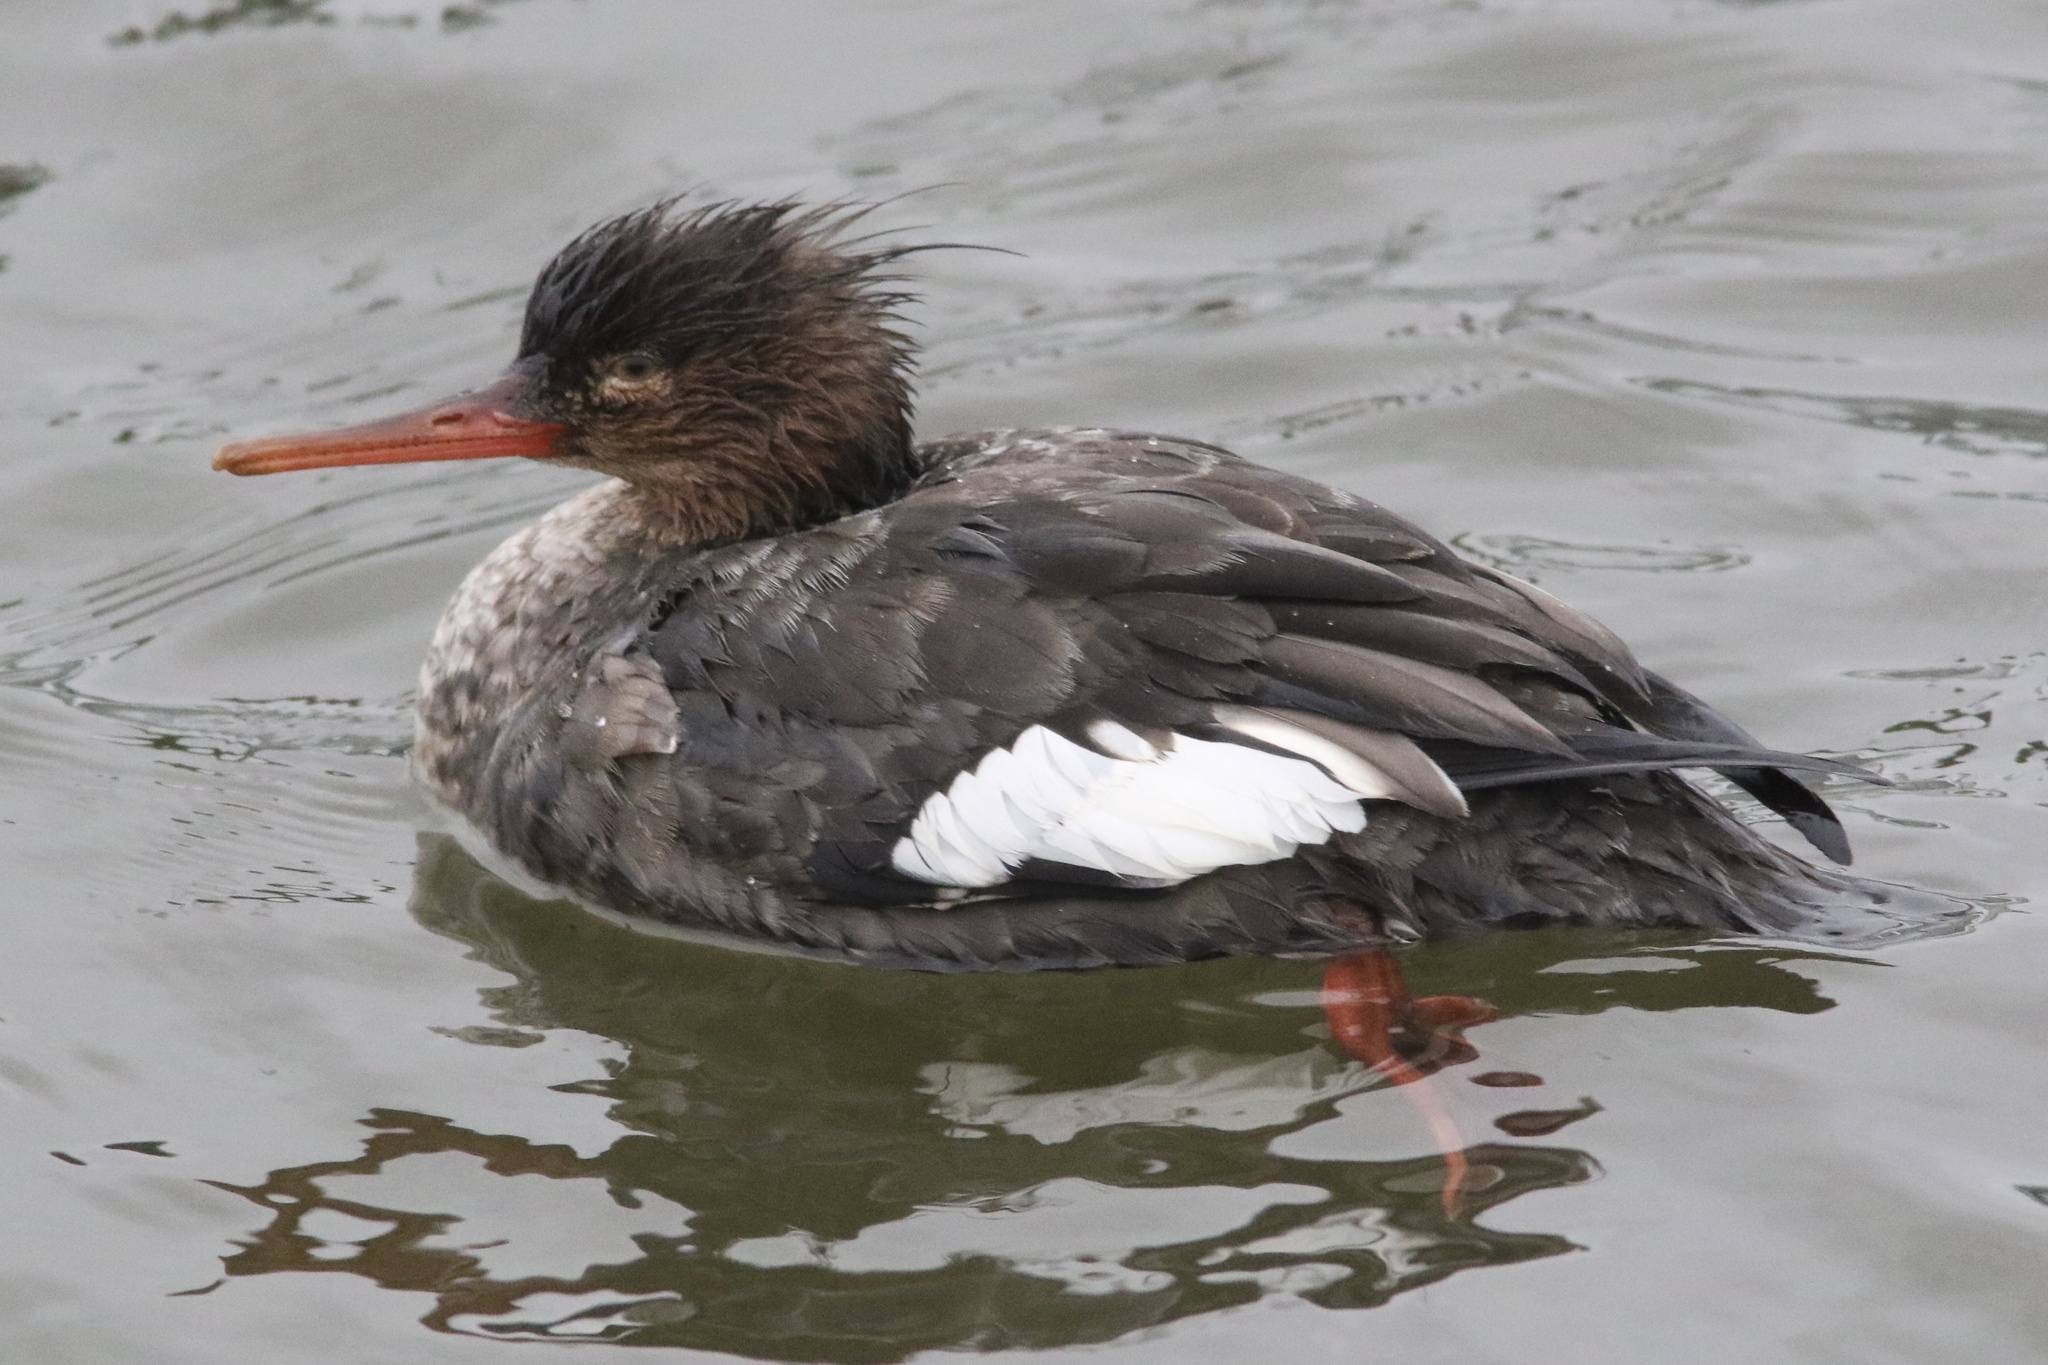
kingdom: Animalia
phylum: Chordata
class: Aves
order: Anseriformes
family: Anatidae
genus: Mergus
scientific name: Mergus serrator
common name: Red-breasted merganser
